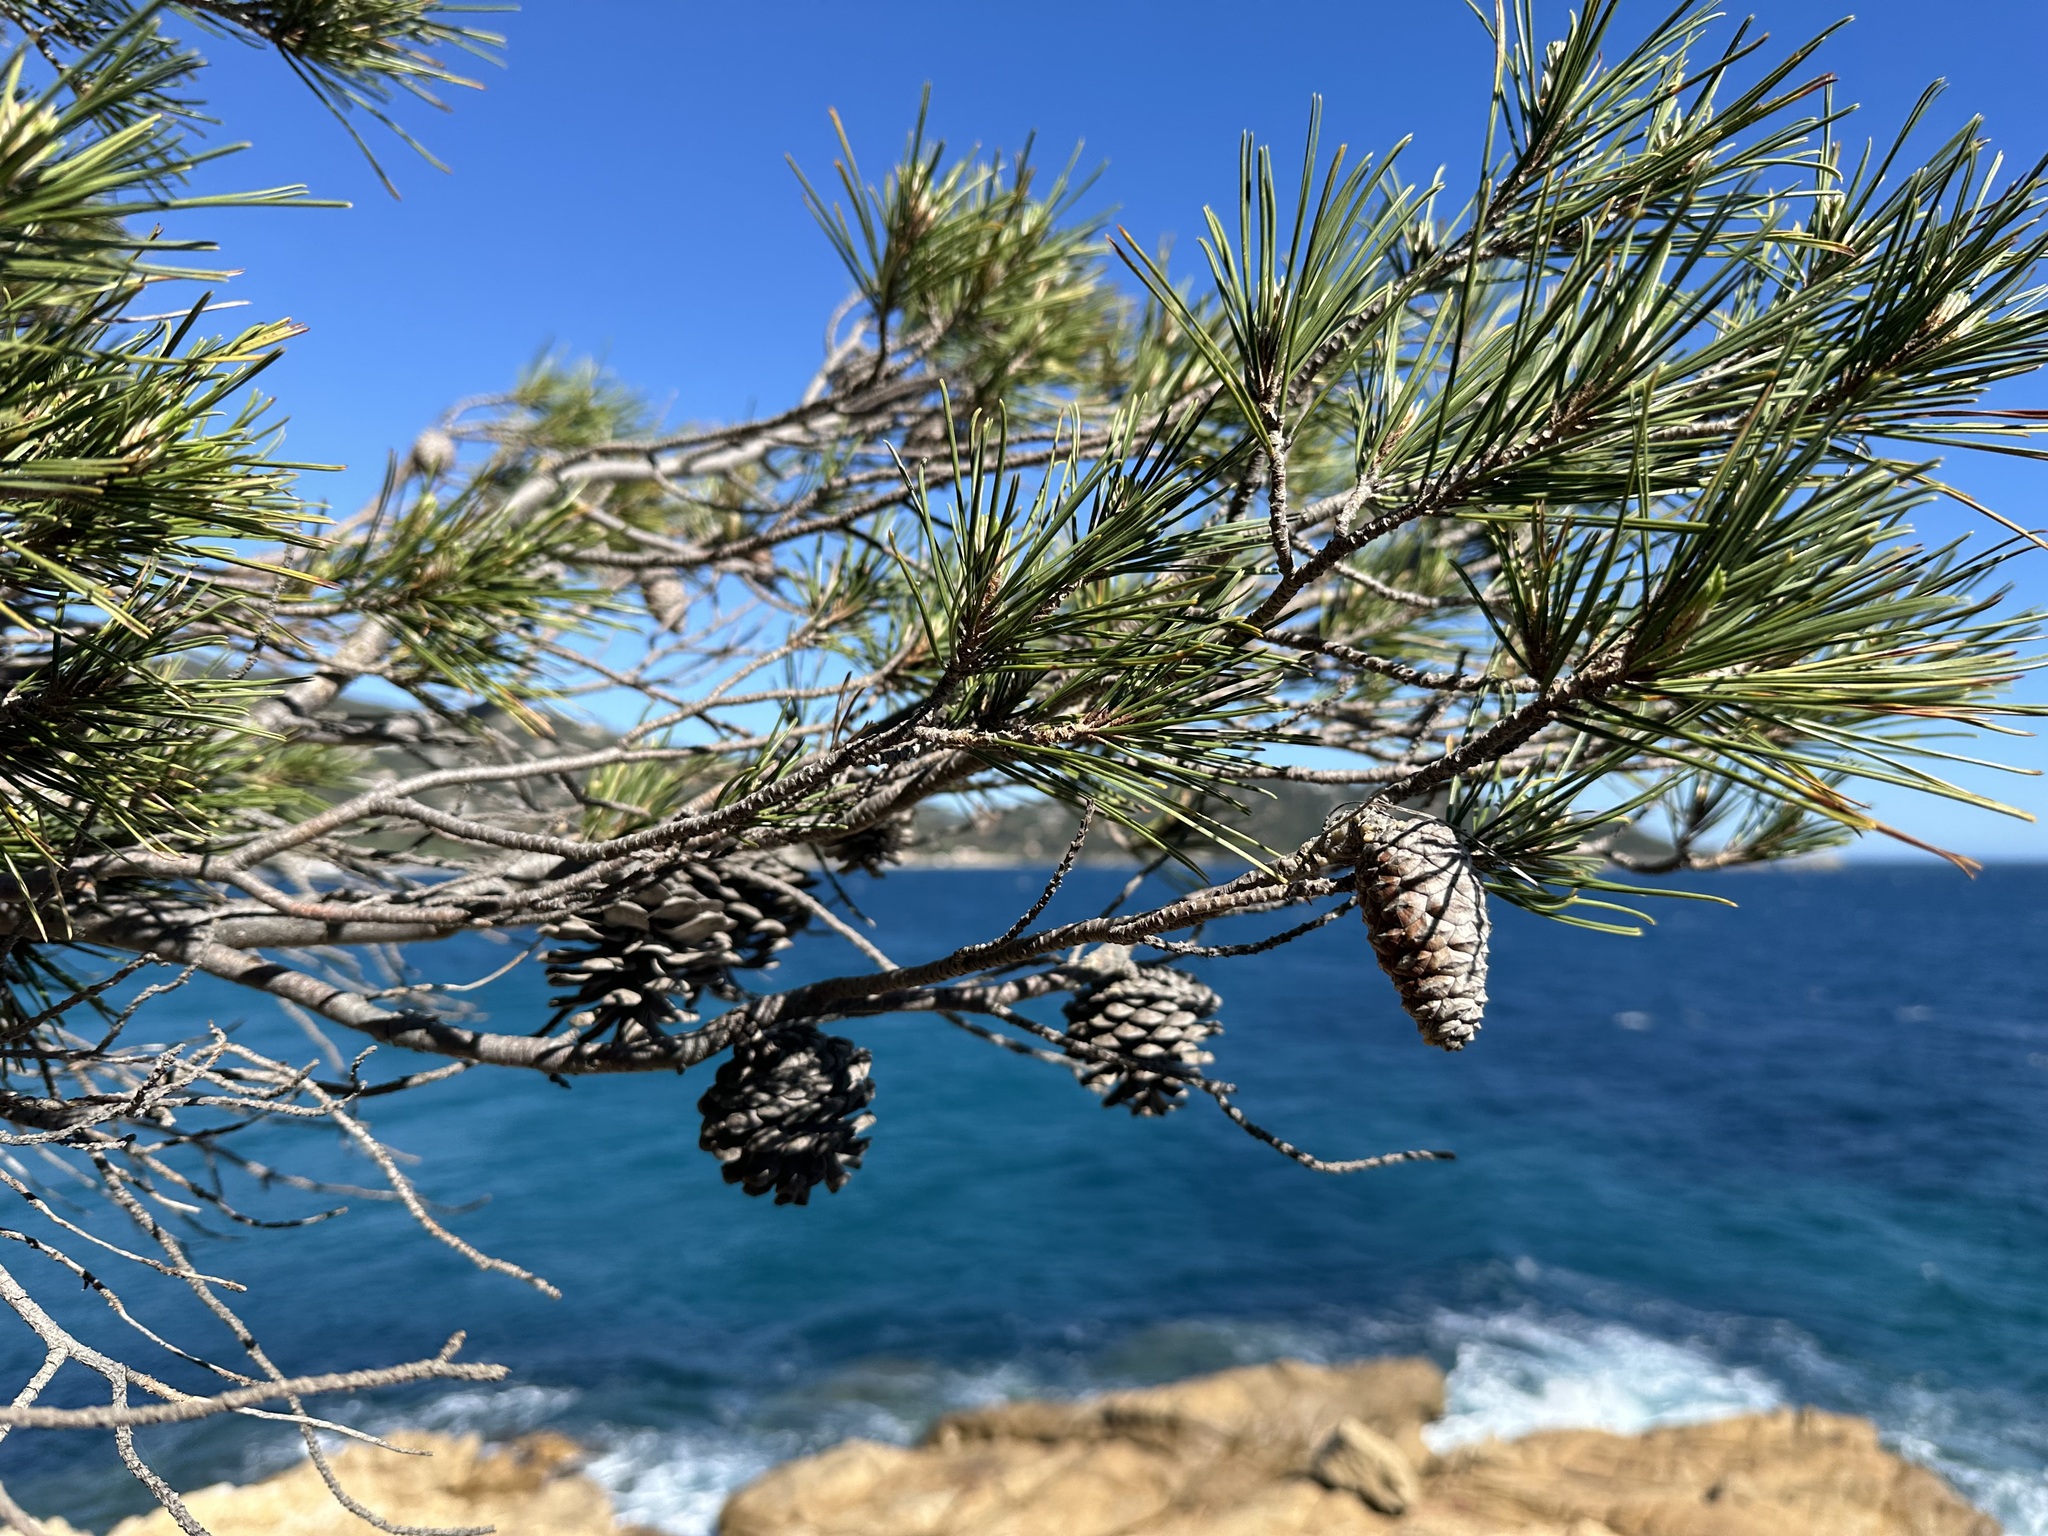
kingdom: Plantae
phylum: Tracheophyta
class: Pinopsida
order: Pinales
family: Pinaceae
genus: Pinus
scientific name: Pinus halepensis
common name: Aleppo pine
